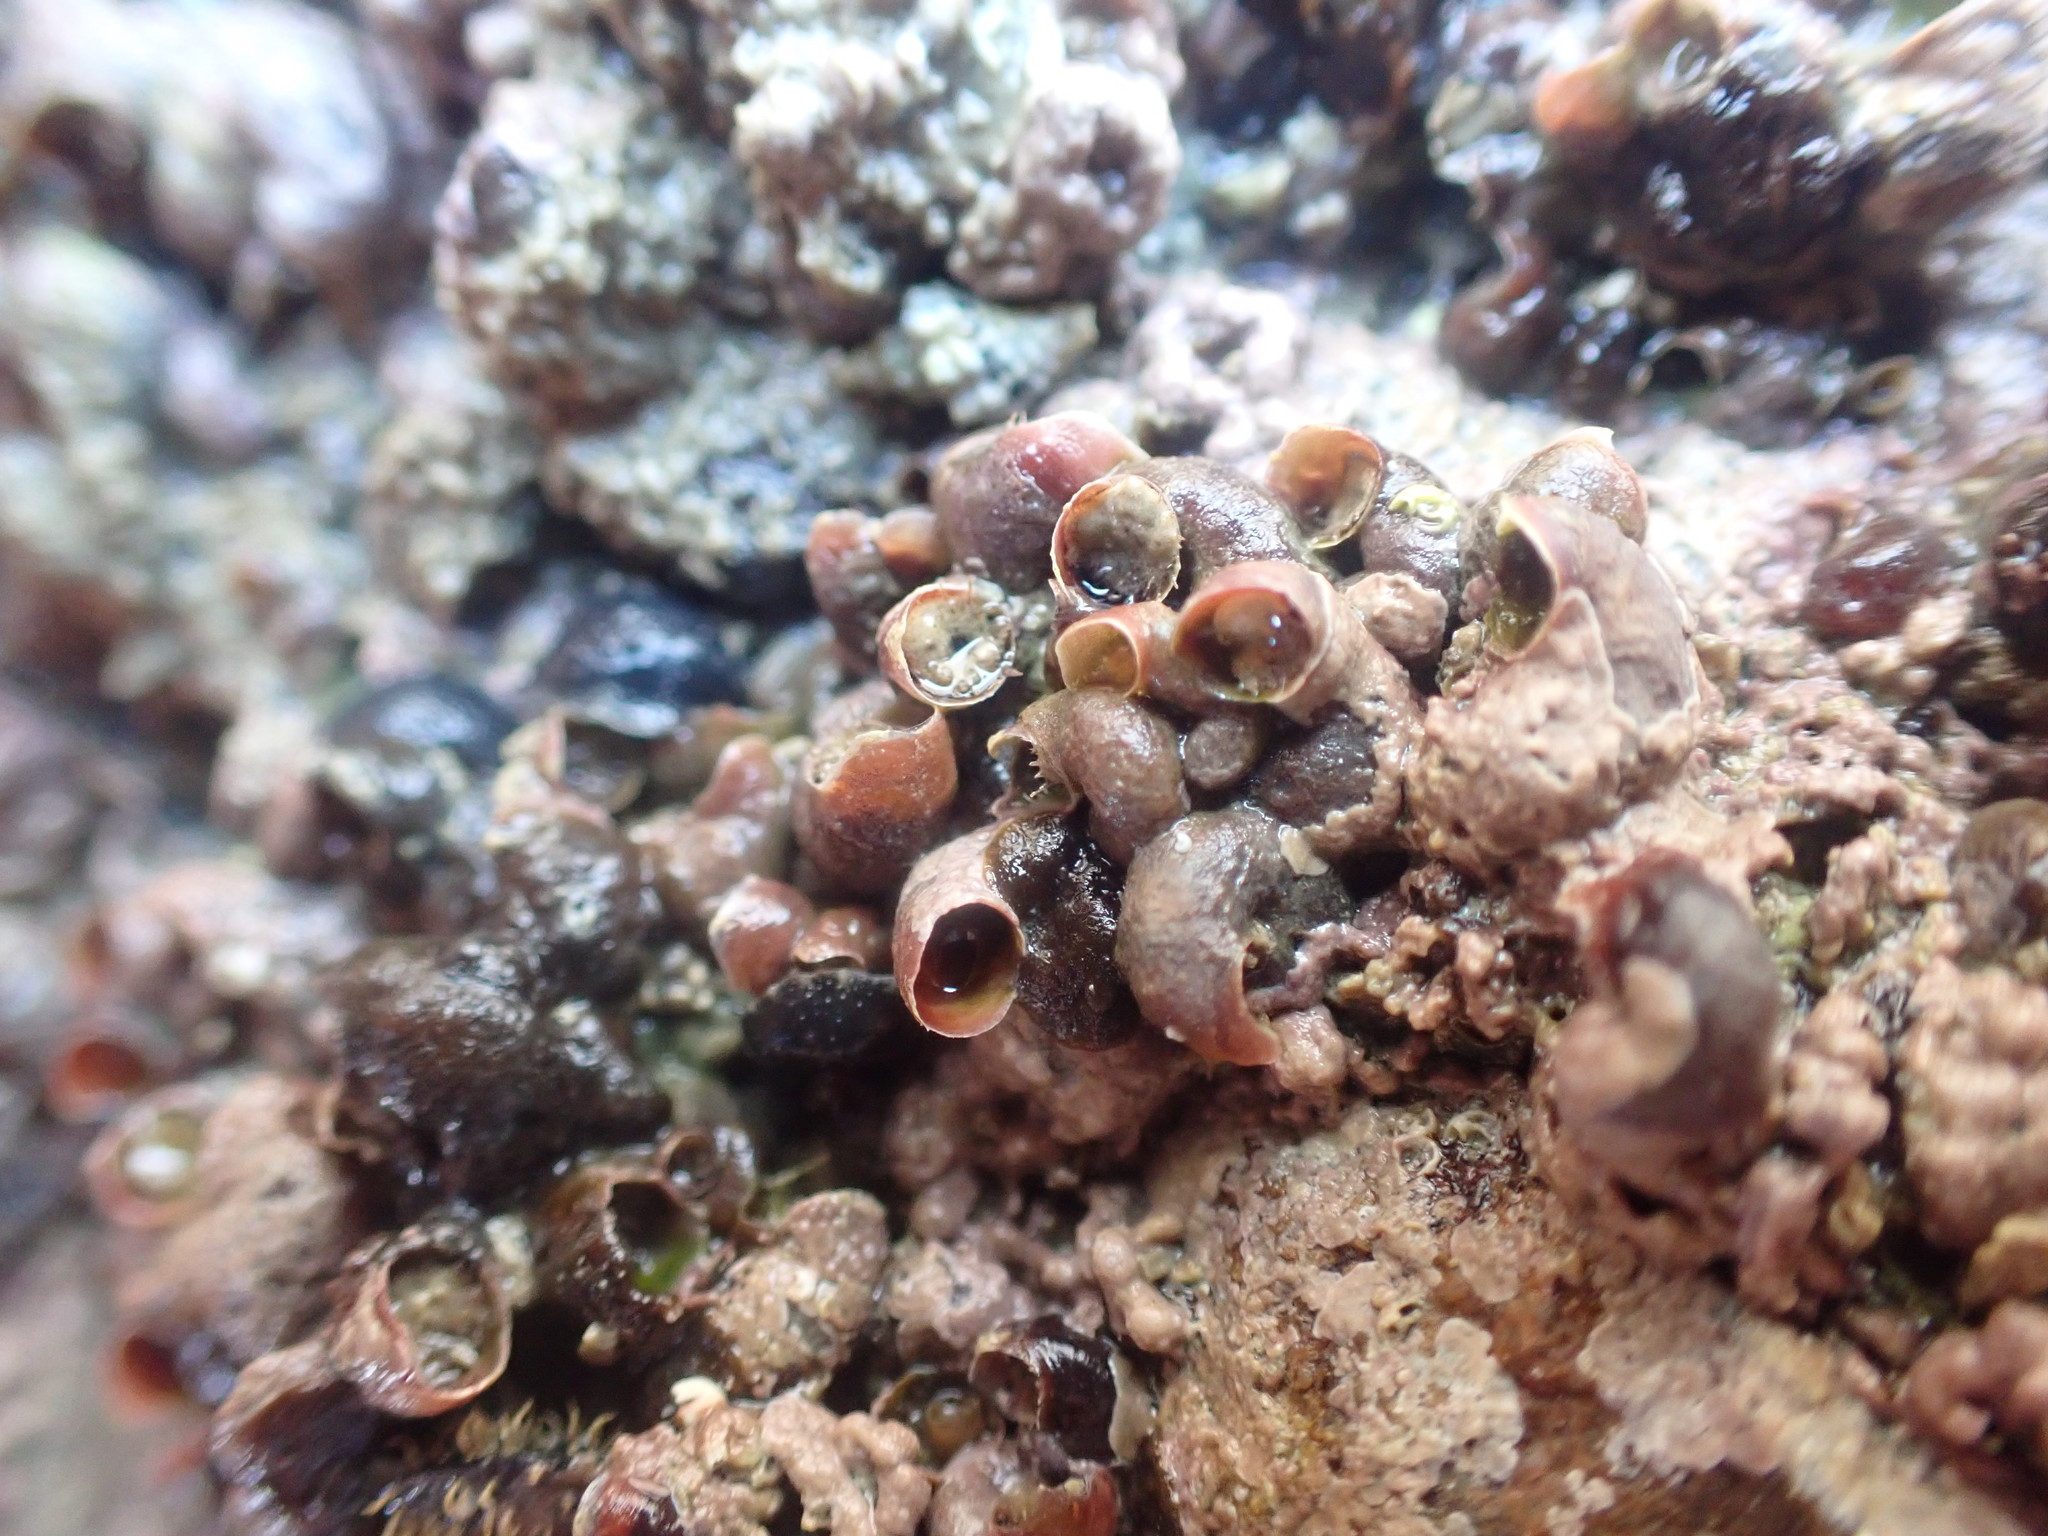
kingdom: Animalia
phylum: Mollusca
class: Gastropoda
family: Siliquariidae
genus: Stephopoma
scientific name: Stephopoma roseum
